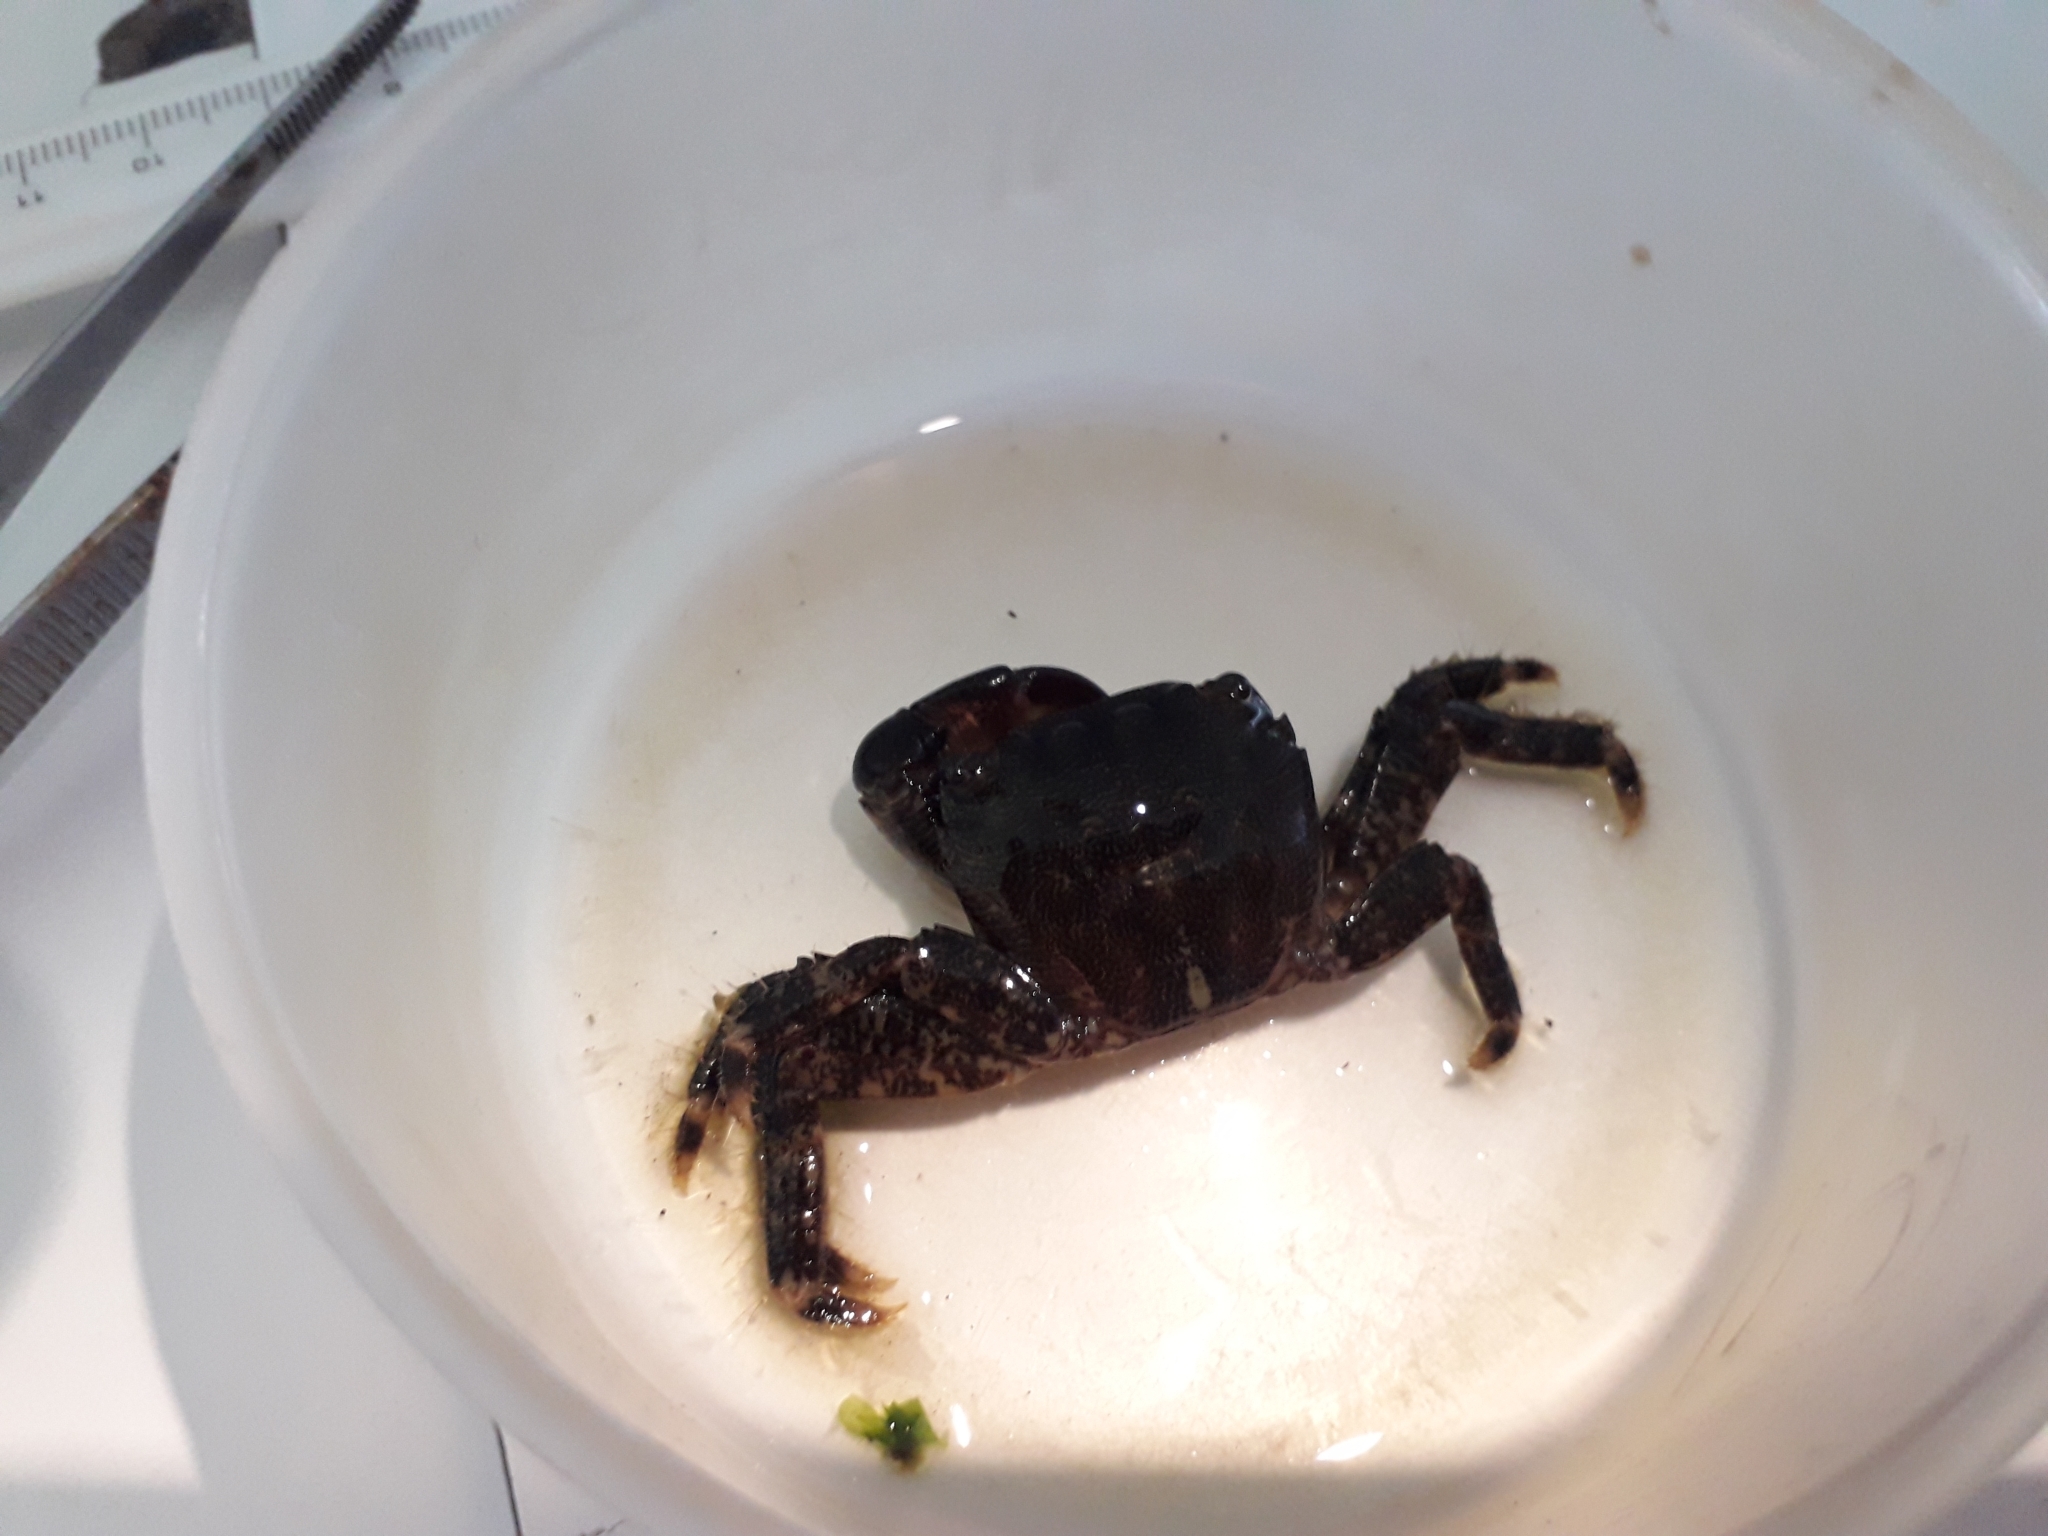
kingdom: Animalia
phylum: Arthropoda
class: Malacostraca
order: Decapoda
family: Grapsidae
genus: Pachygrapsus
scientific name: Pachygrapsus marmoratus
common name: Marbled rock crab
